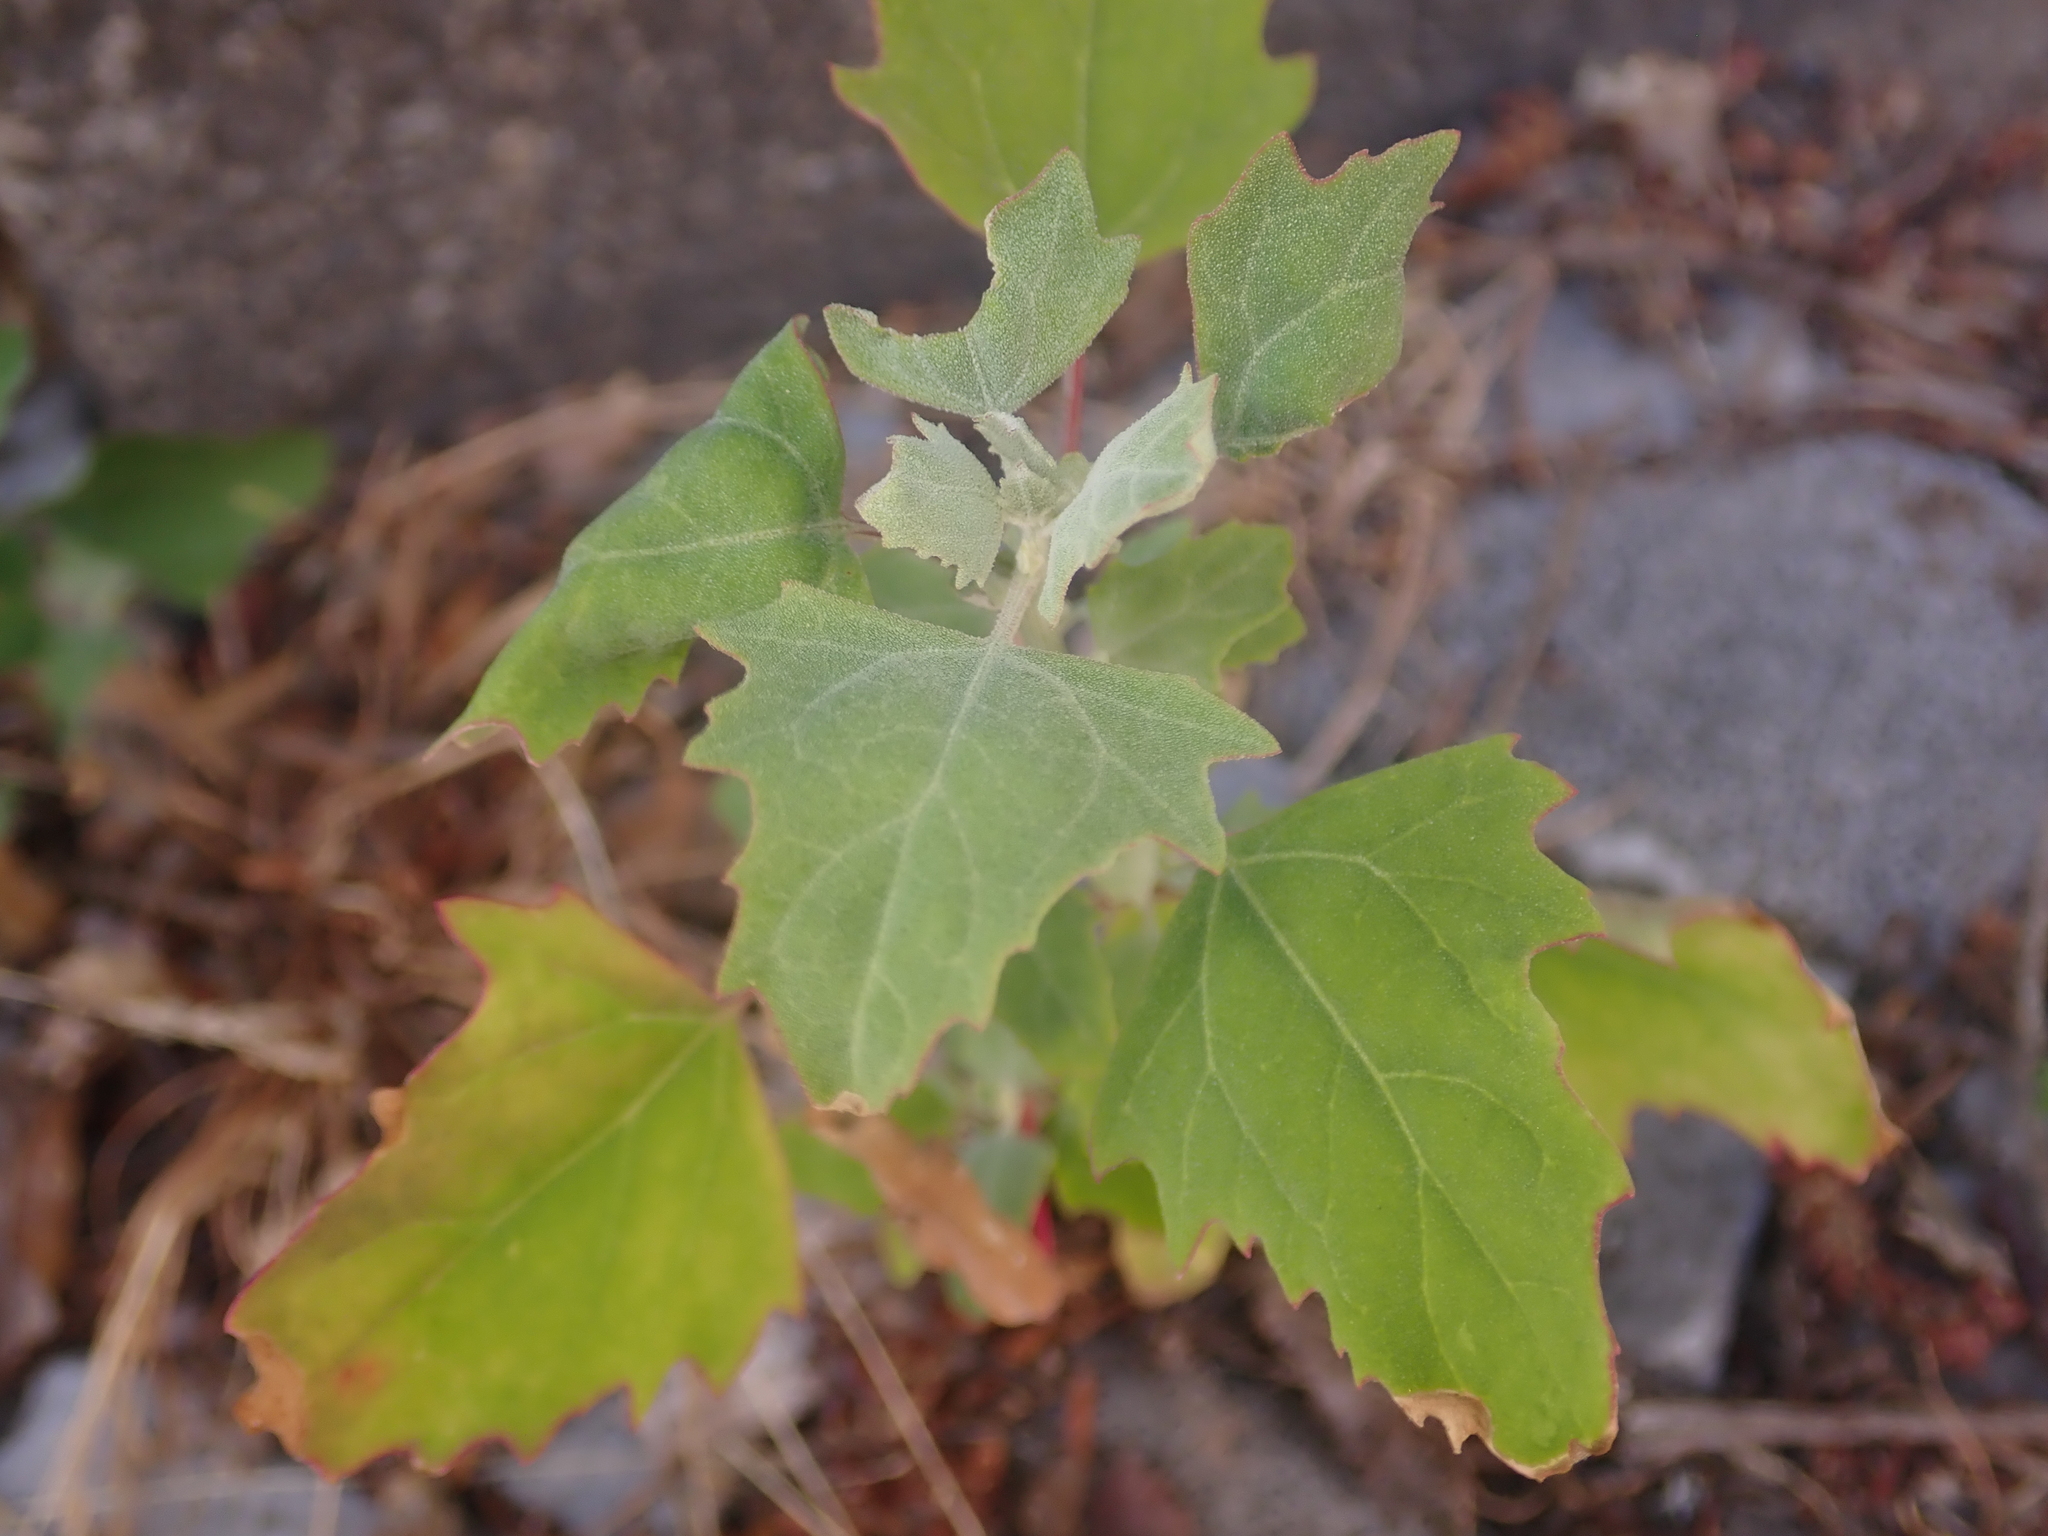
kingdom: Plantae
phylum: Tracheophyta
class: Magnoliopsida
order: Caryophyllales
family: Amaranthaceae
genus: Chenopodium
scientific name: Chenopodium album
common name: Fat-hen
